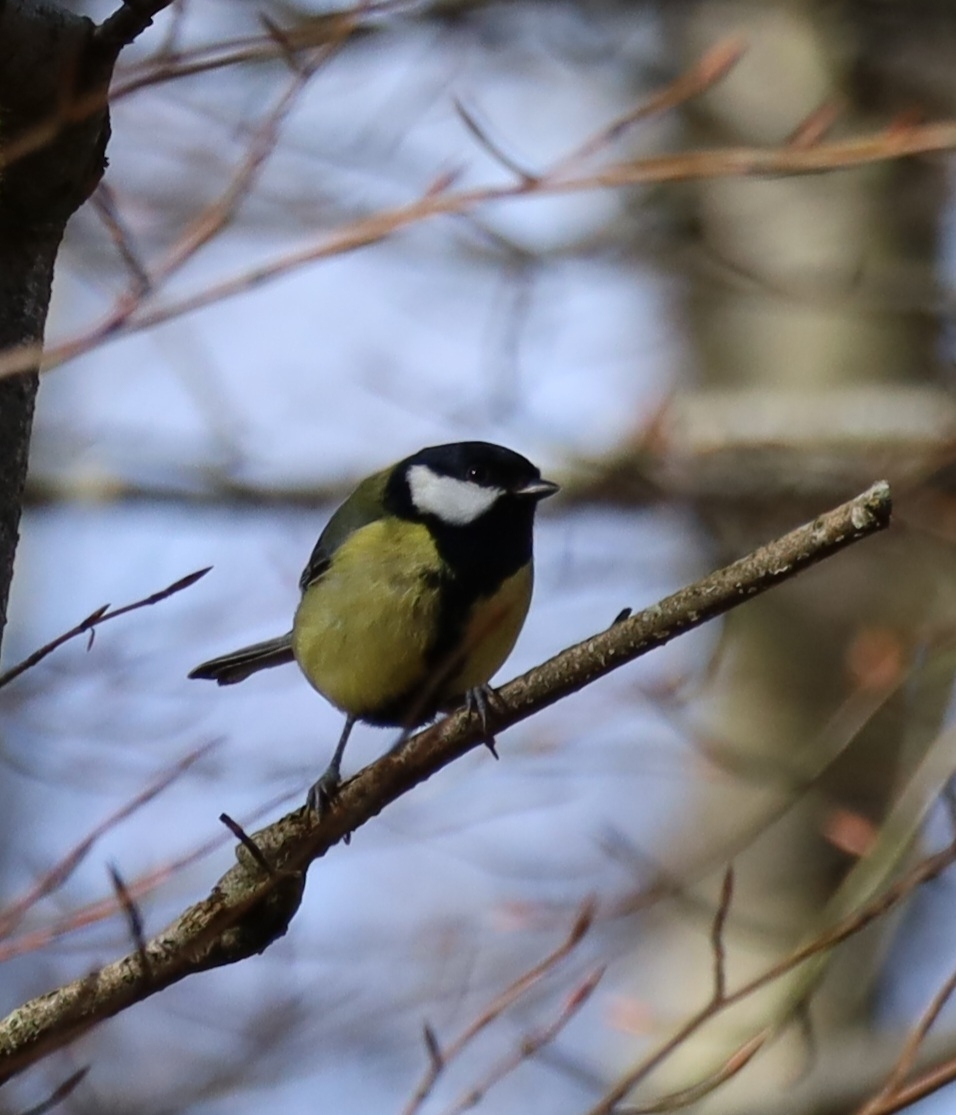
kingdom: Animalia
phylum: Chordata
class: Aves
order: Passeriformes
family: Paridae
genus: Parus
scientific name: Parus major
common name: Great tit
